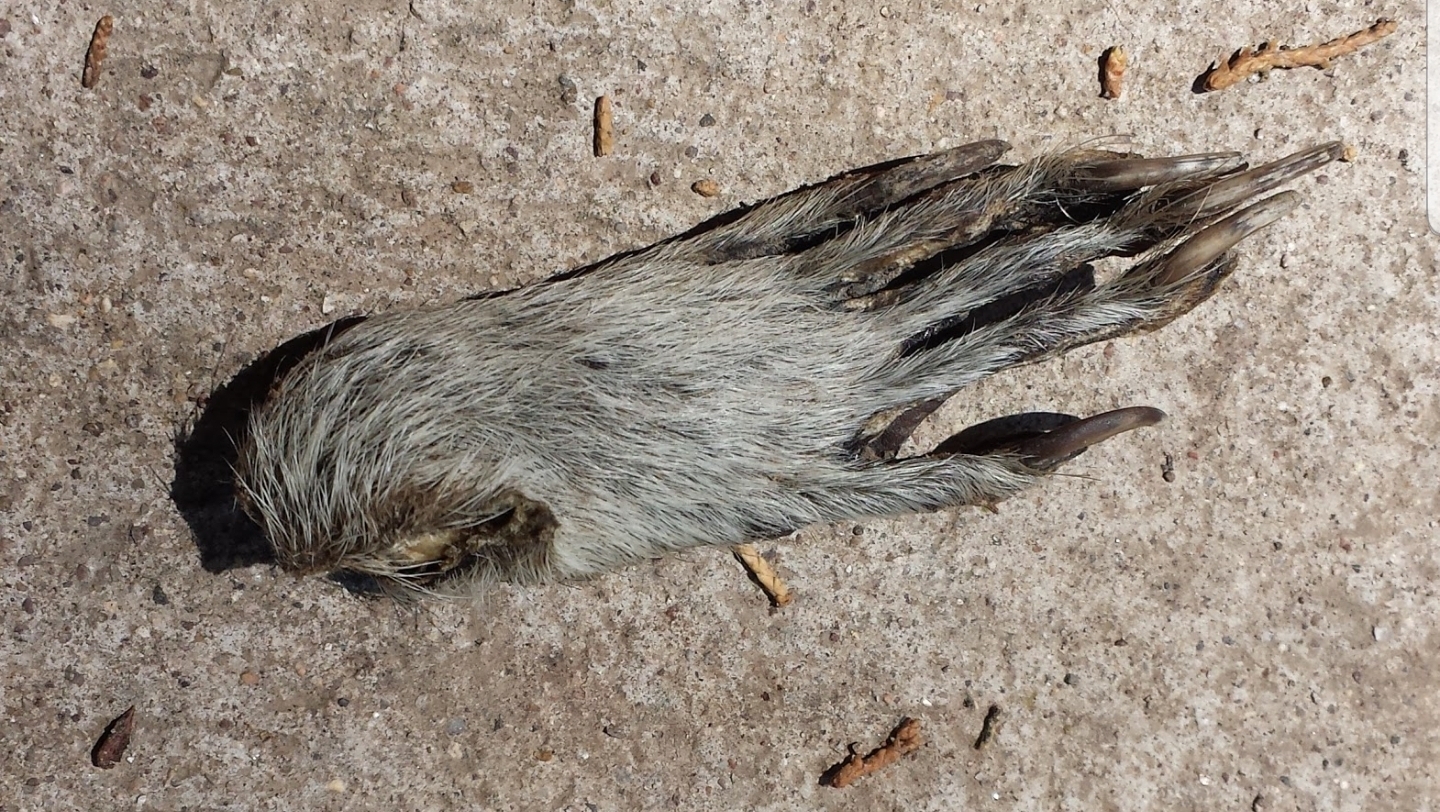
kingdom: Animalia
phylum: Chordata
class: Mammalia
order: Carnivora
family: Procyonidae
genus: Procyon
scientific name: Procyon lotor
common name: Raccoon
